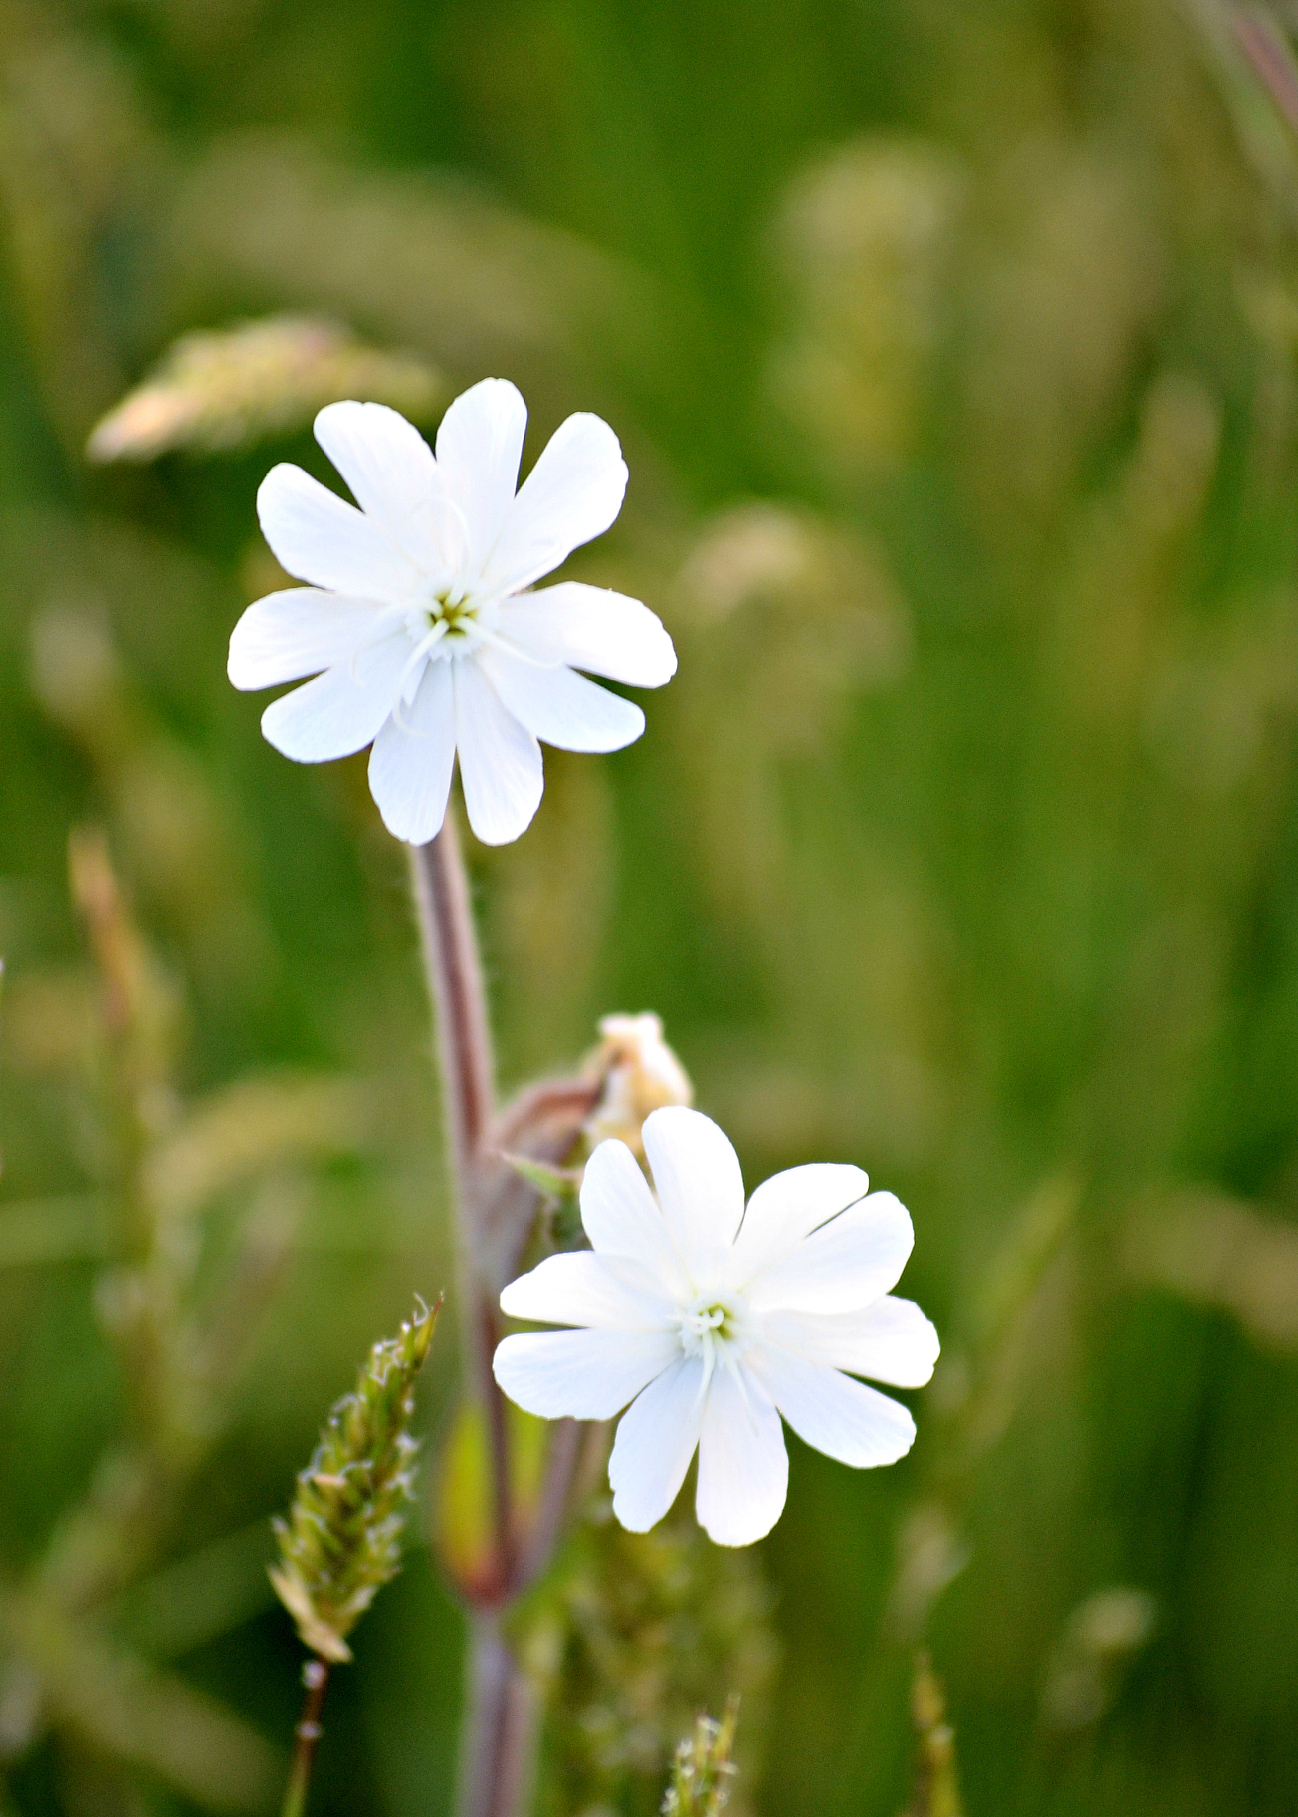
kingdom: Plantae
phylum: Tracheophyta
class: Magnoliopsida
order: Caryophyllales
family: Caryophyllaceae
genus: Silene
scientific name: Silene latifolia
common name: White campion
